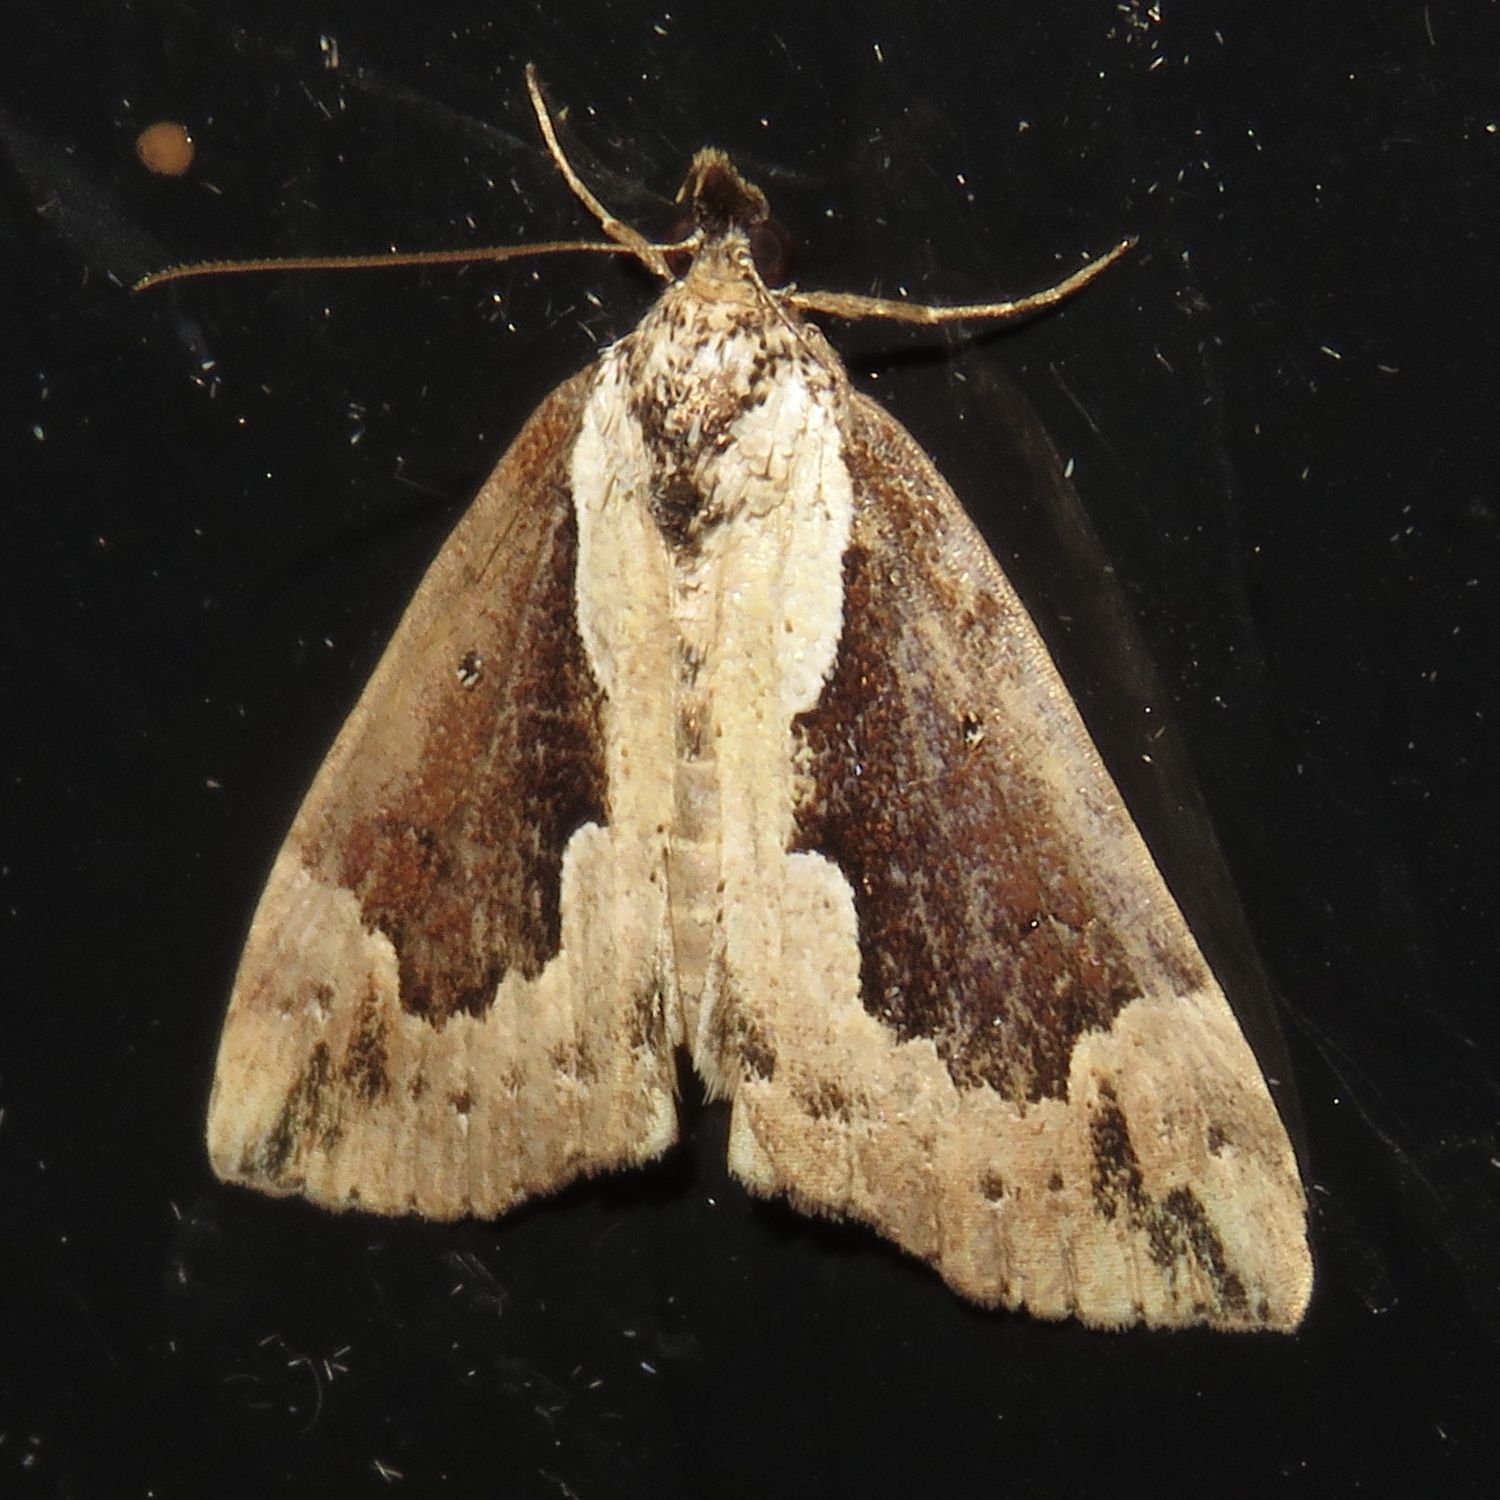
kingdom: Animalia
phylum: Arthropoda
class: Insecta
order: Lepidoptera
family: Erebidae
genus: Hypena
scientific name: Hypena baltimoralis
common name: Baltimore snout
